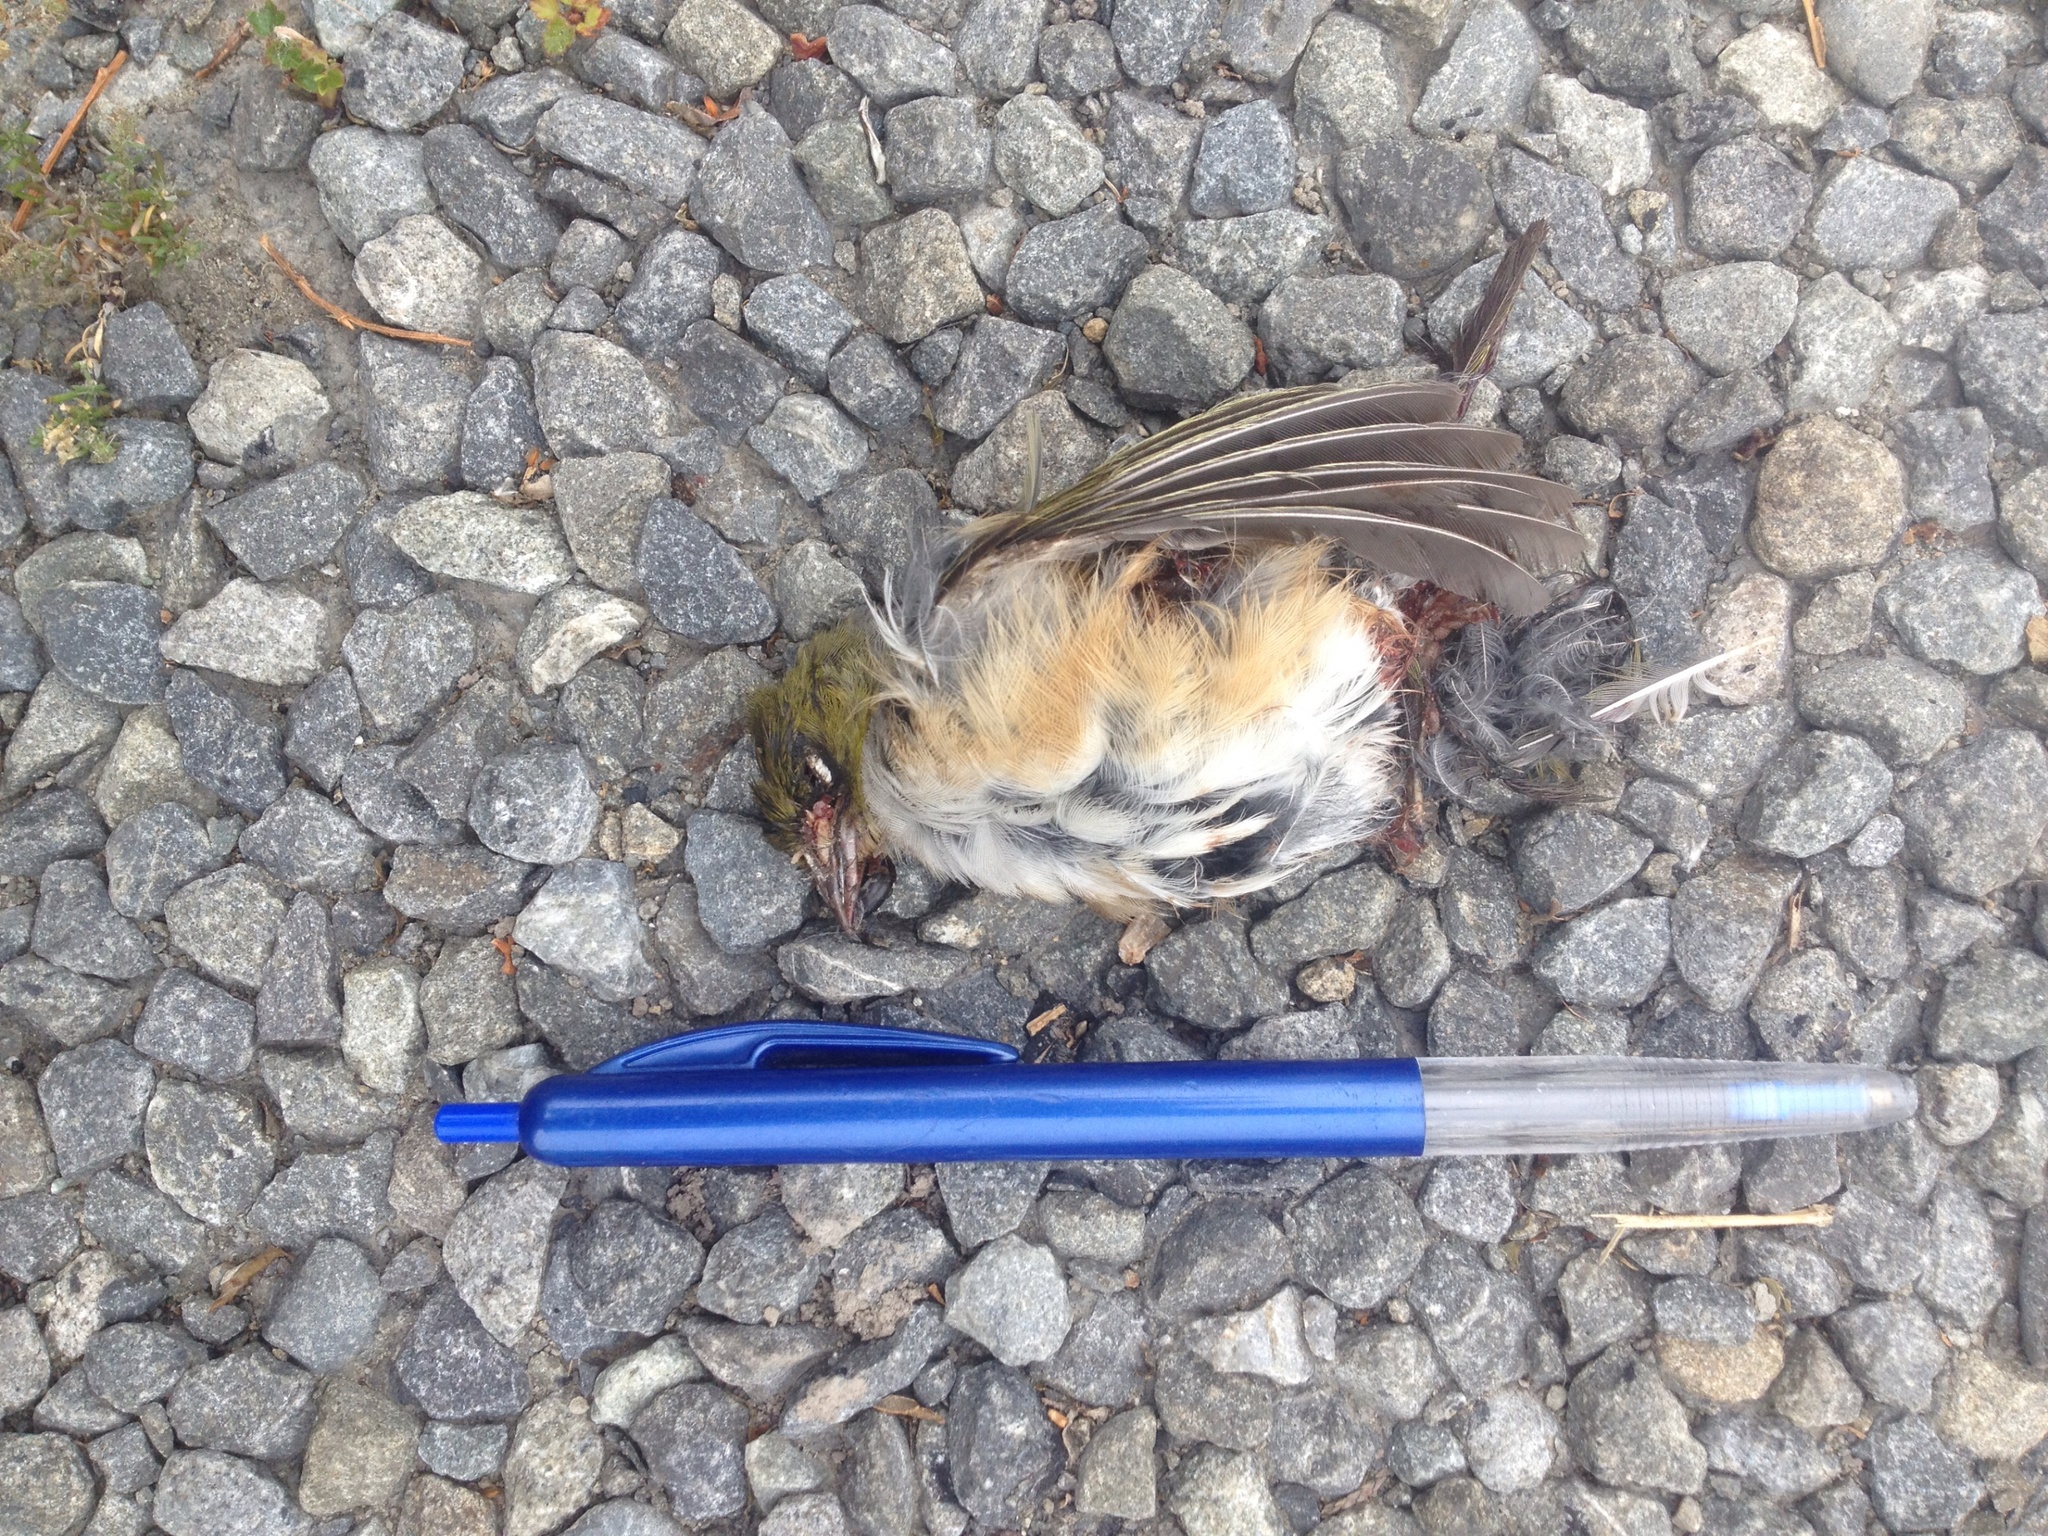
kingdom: Animalia
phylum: Chordata
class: Aves
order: Passeriformes
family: Zosteropidae
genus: Zosterops
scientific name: Zosterops lateralis
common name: Silvereye
